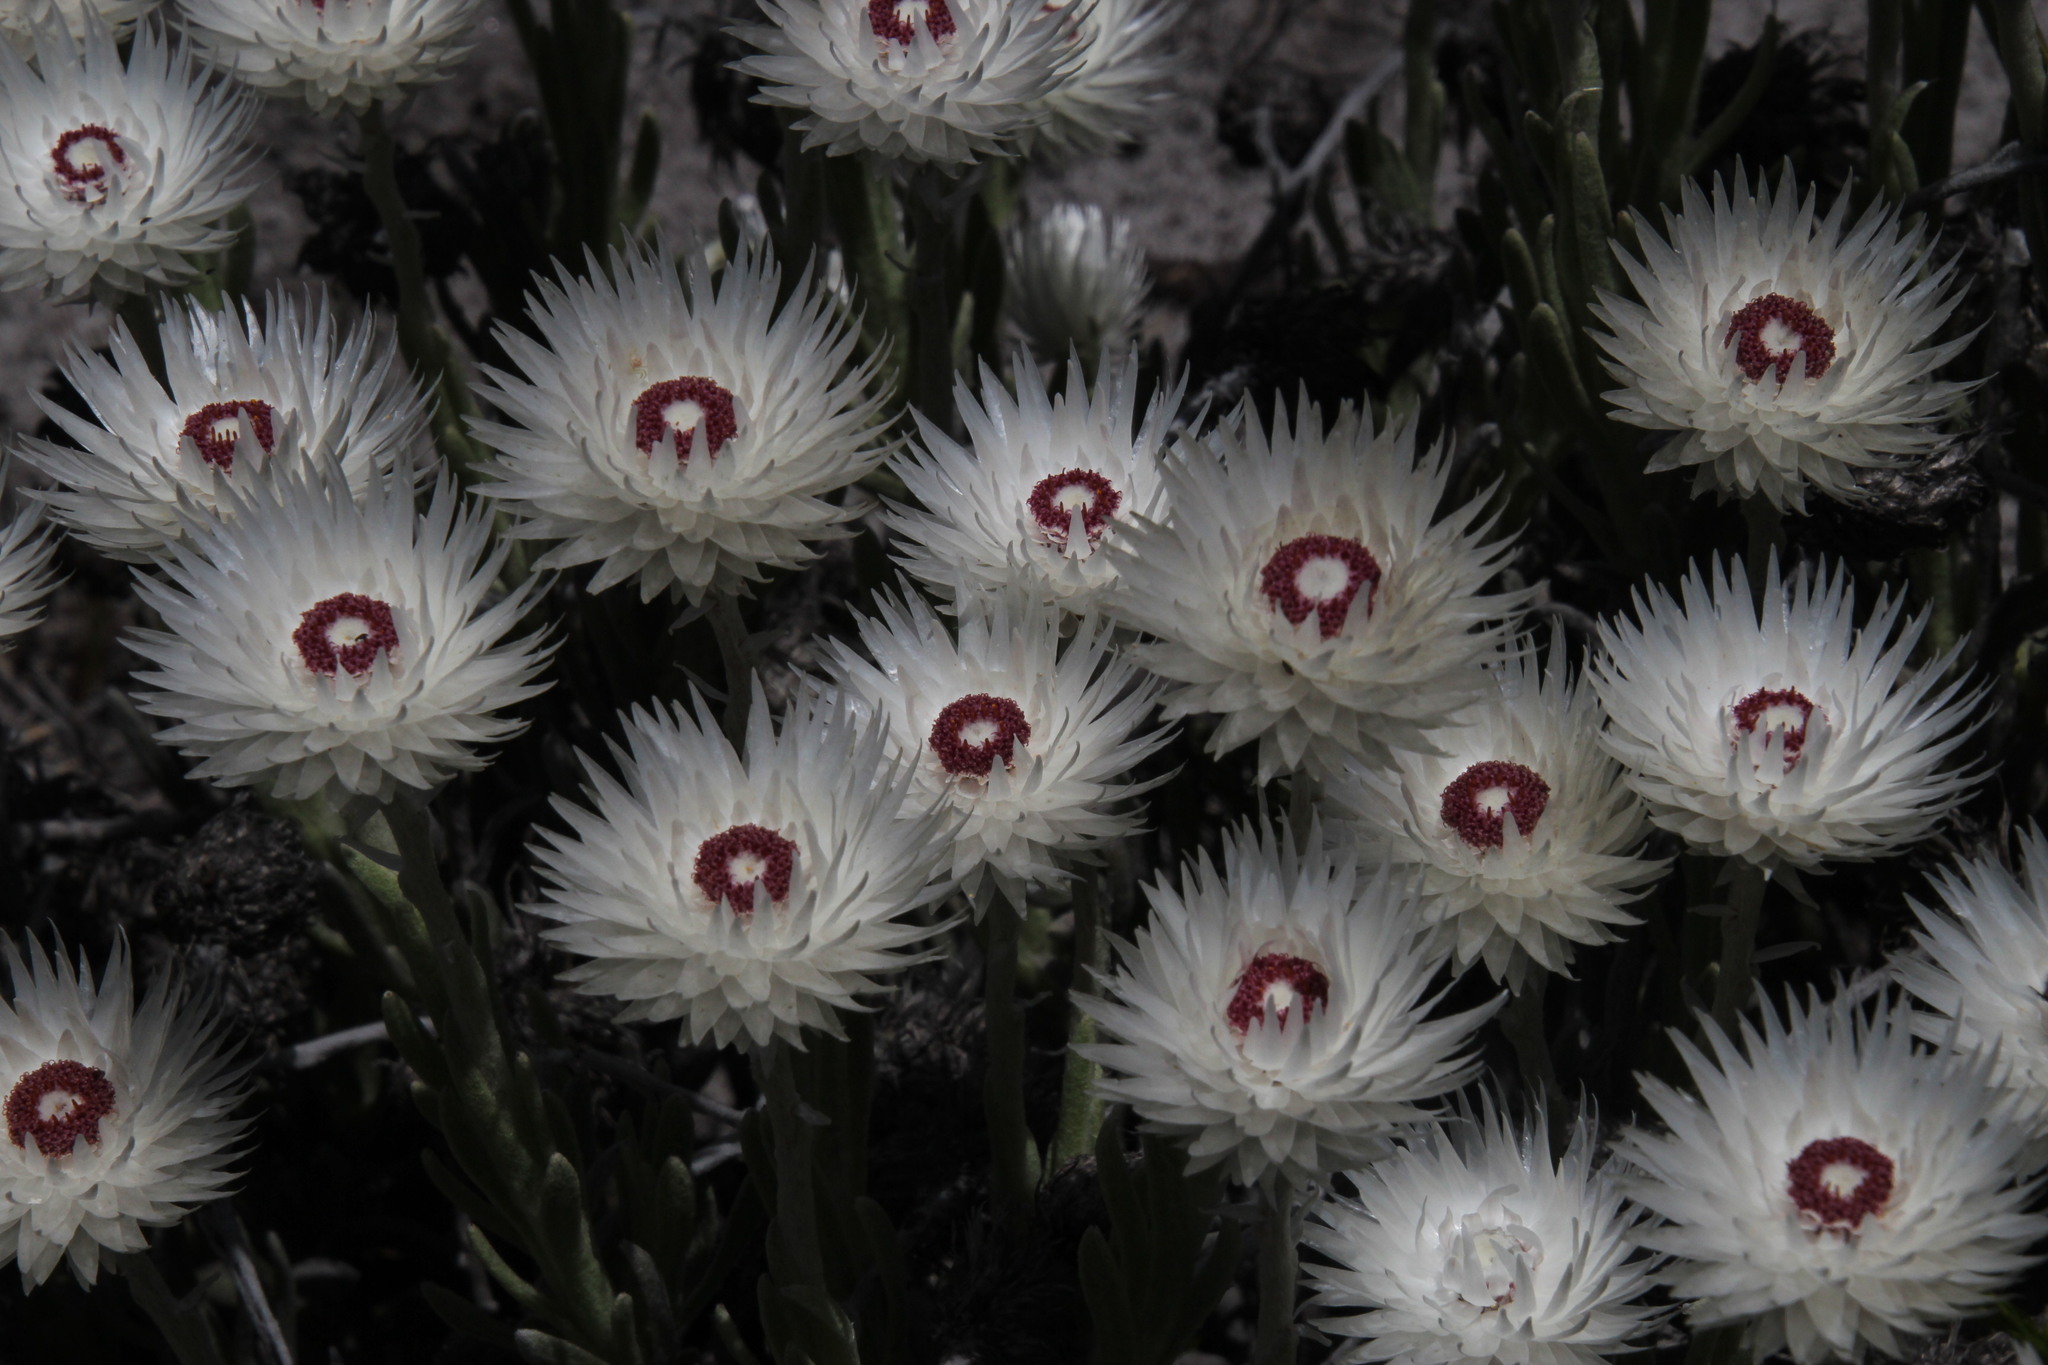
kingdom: Plantae
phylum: Tracheophyta
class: Magnoliopsida
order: Asterales
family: Asteraceae
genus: Syncarpha
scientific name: Syncarpha vestita
